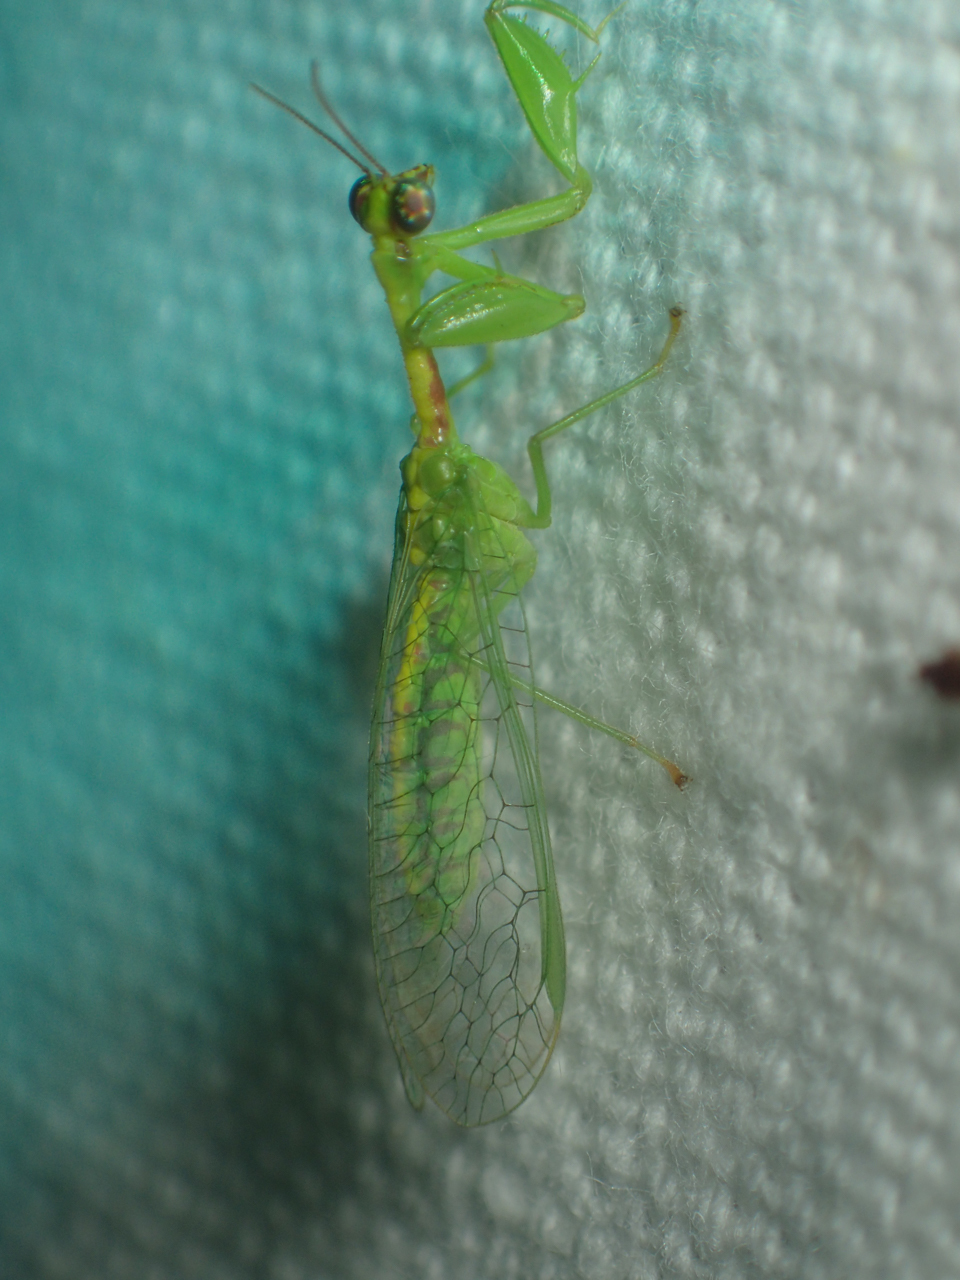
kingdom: Animalia
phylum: Arthropoda
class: Insecta
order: Neuroptera
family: Mantispidae
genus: Zeugomantispa
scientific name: Zeugomantispa minuta
